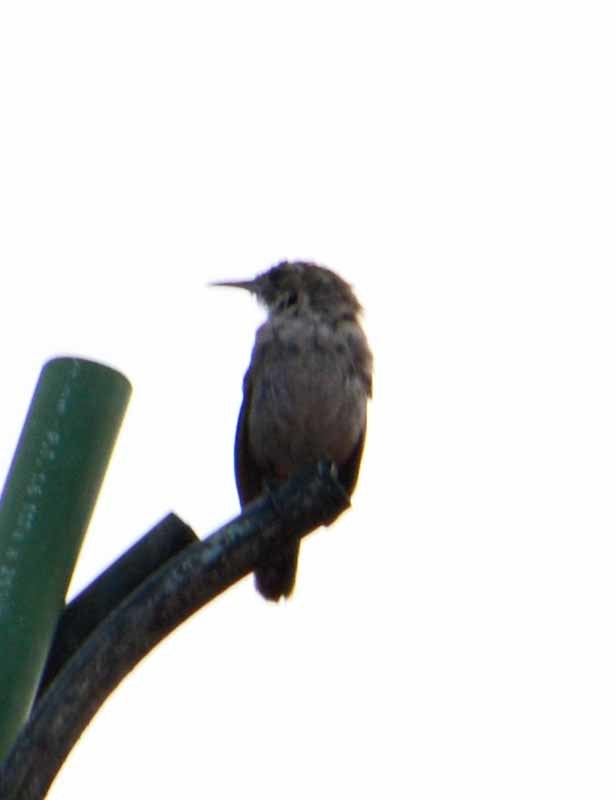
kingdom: Animalia
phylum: Chordata
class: Aves
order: Passeriformes
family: Troglodytidae
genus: Thryomanes
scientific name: Thryomanes bewickii
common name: Bewick's wren
